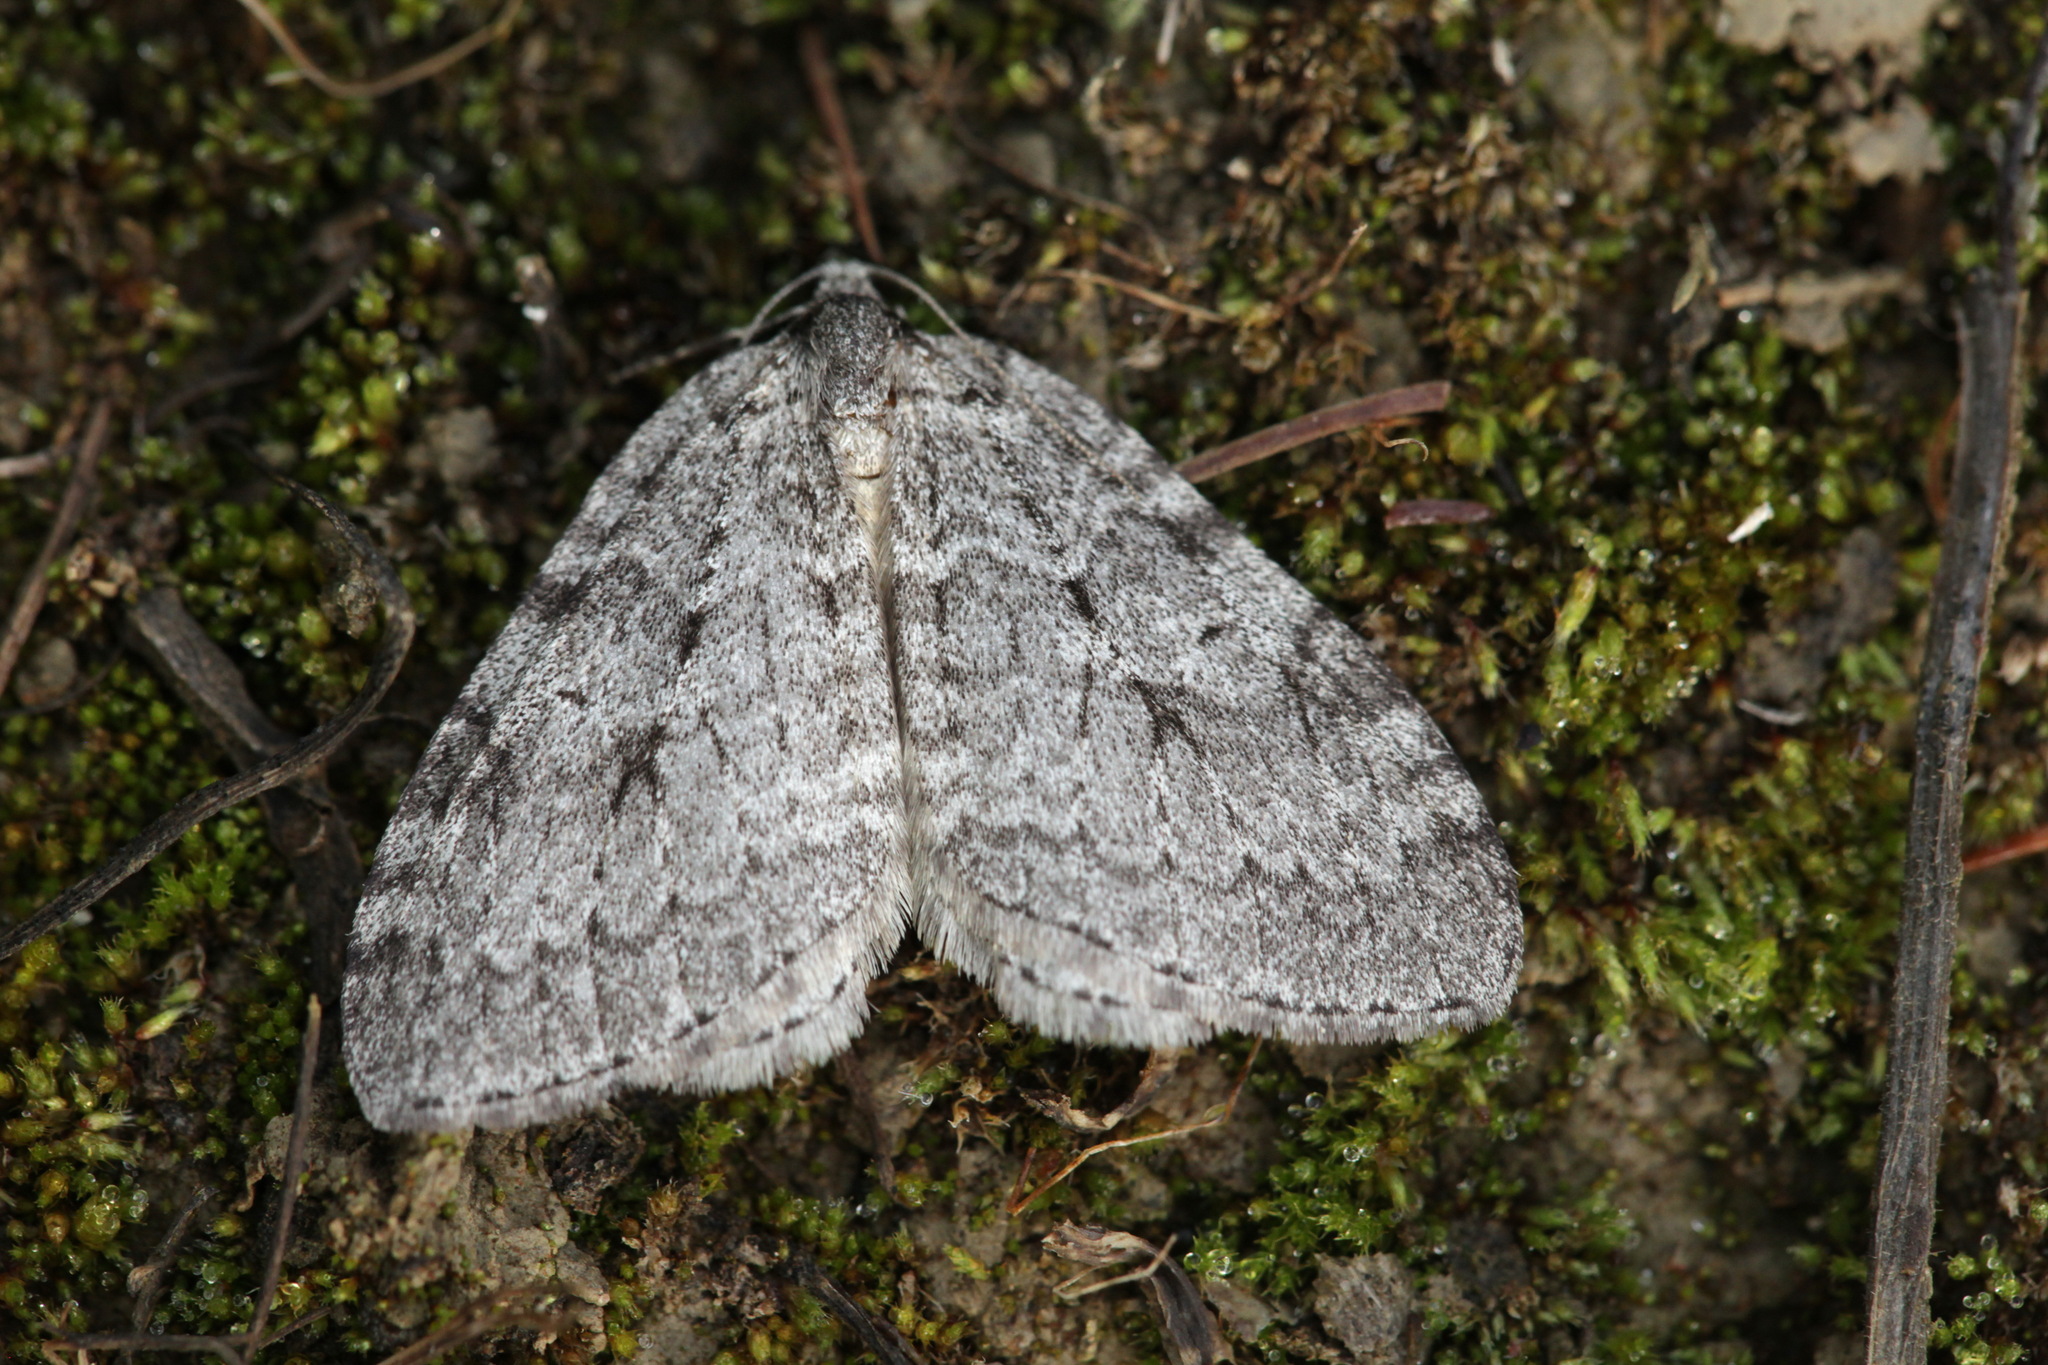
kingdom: Animalia
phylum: Arthropoda
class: Insecta
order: Lepidoptera
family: Geometridae
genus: Epirrita
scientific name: Epirrita autumnata
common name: Autumnal moth
